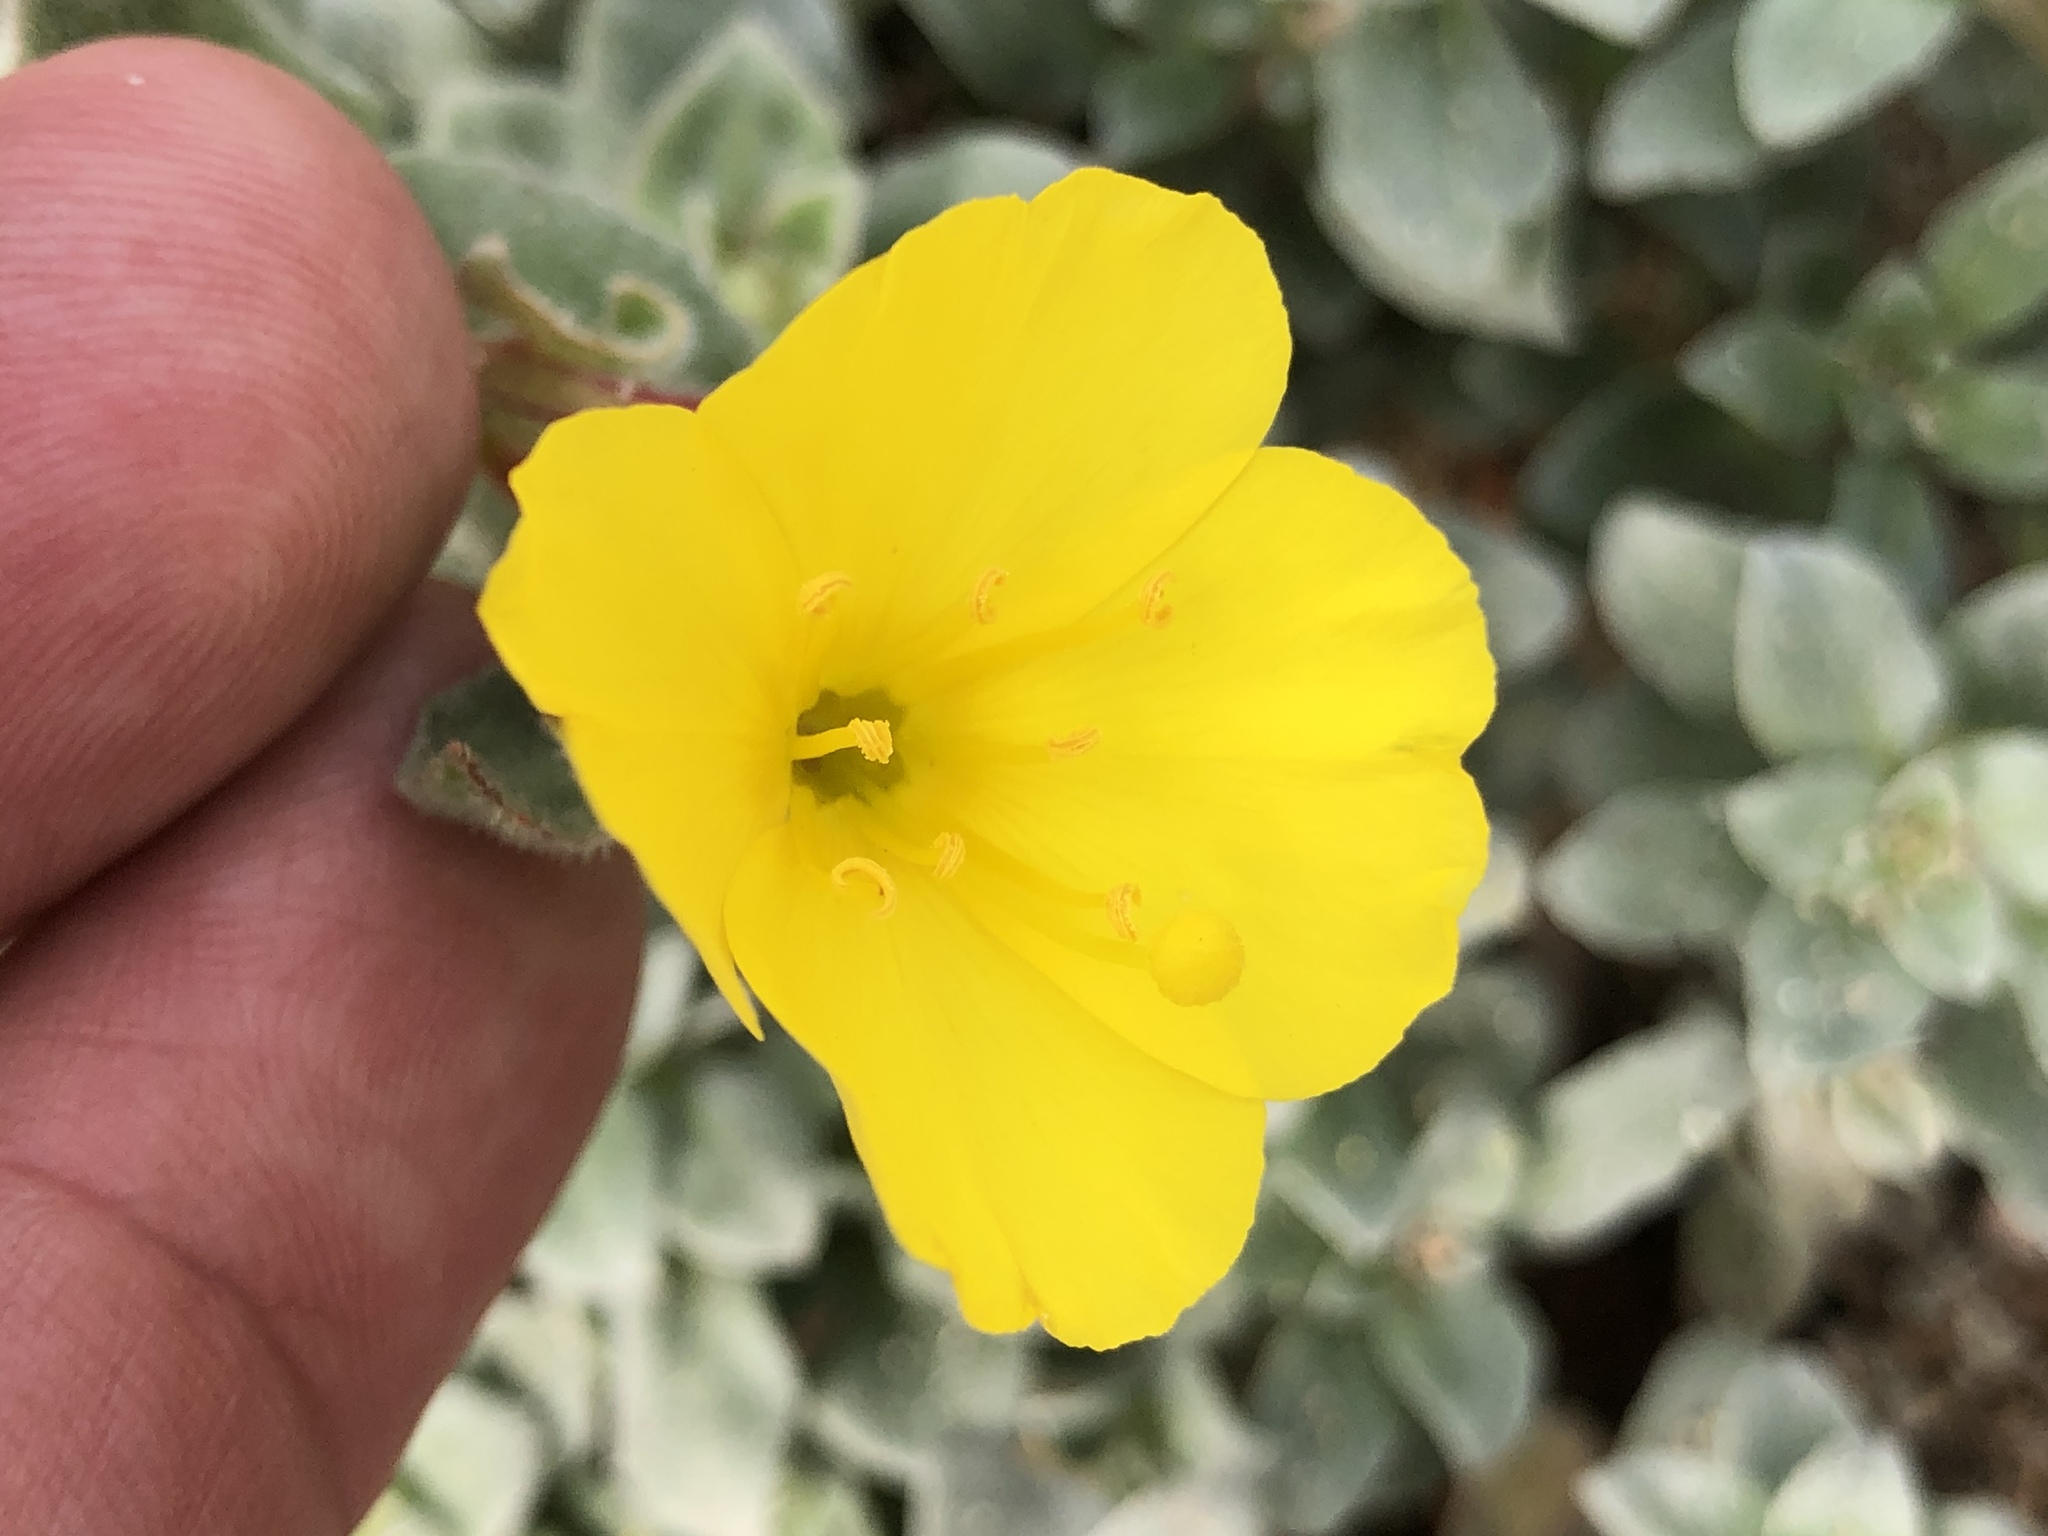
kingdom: Plantae
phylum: Tracheophyta
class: Magnoliopsida
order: Myrtales
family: Onagraceae
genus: Camissoniopsis
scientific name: Camissoniopsis cheiranthifolia
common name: Beach suncup
